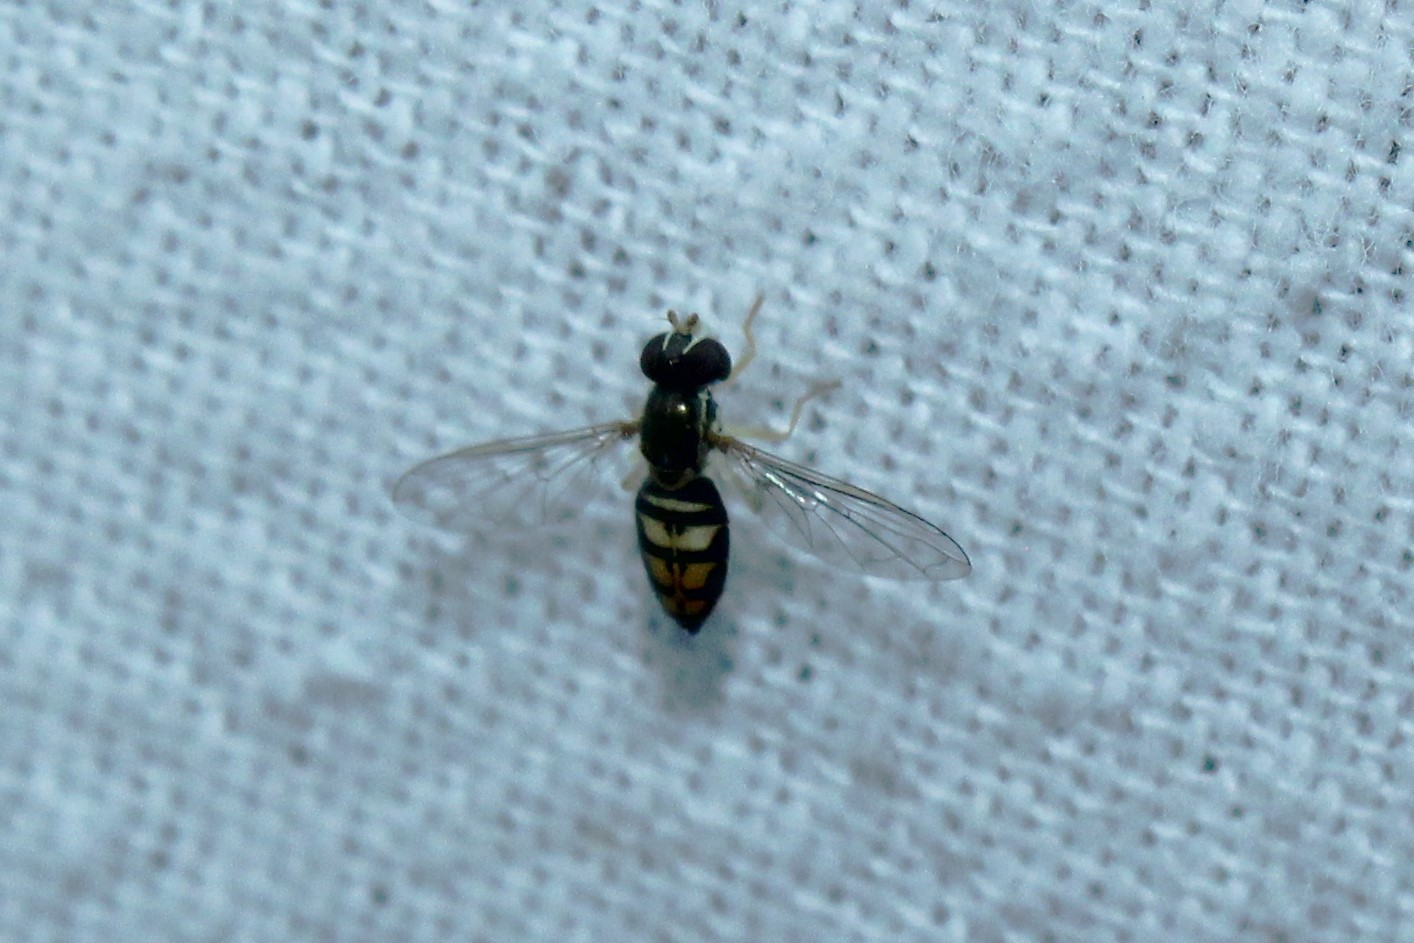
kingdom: Animalia
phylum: Arthropoda
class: Insecta
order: Diptera
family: Syrphidae
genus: Toxomerus
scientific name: Toxomerus marginatus
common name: Syrphid fly
